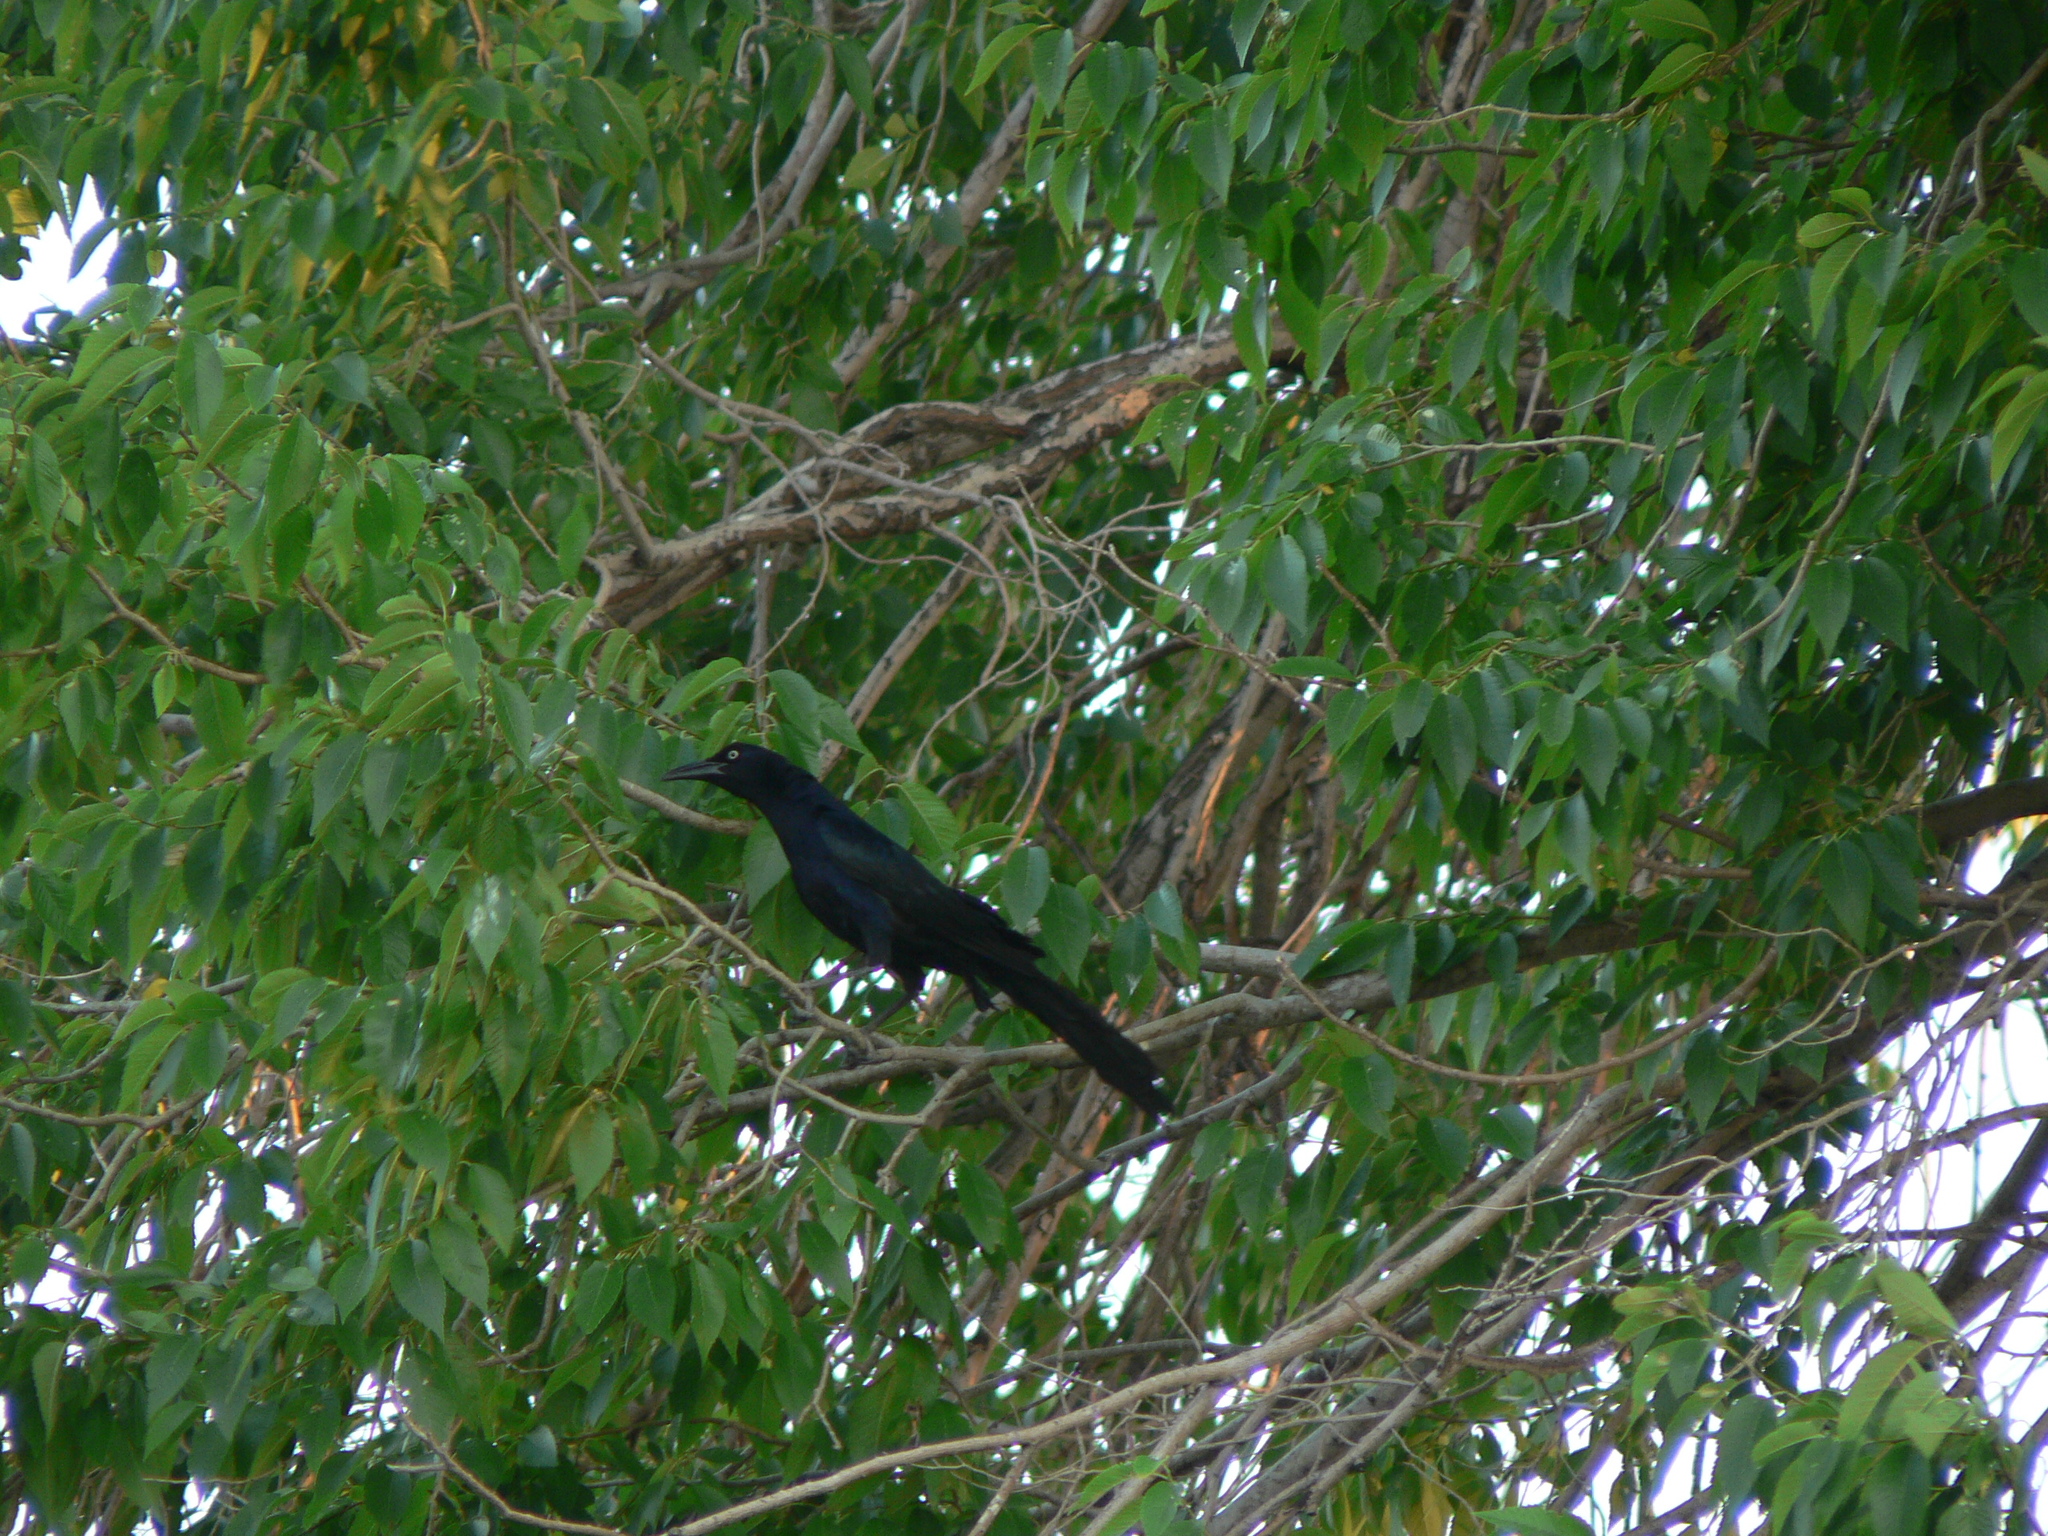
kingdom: Animalia
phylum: Chordata
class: Aves
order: Passeriformes
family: Icteridae
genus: Quiscalus
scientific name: Quiscalus mexicanus
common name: Great-tailed grackle
